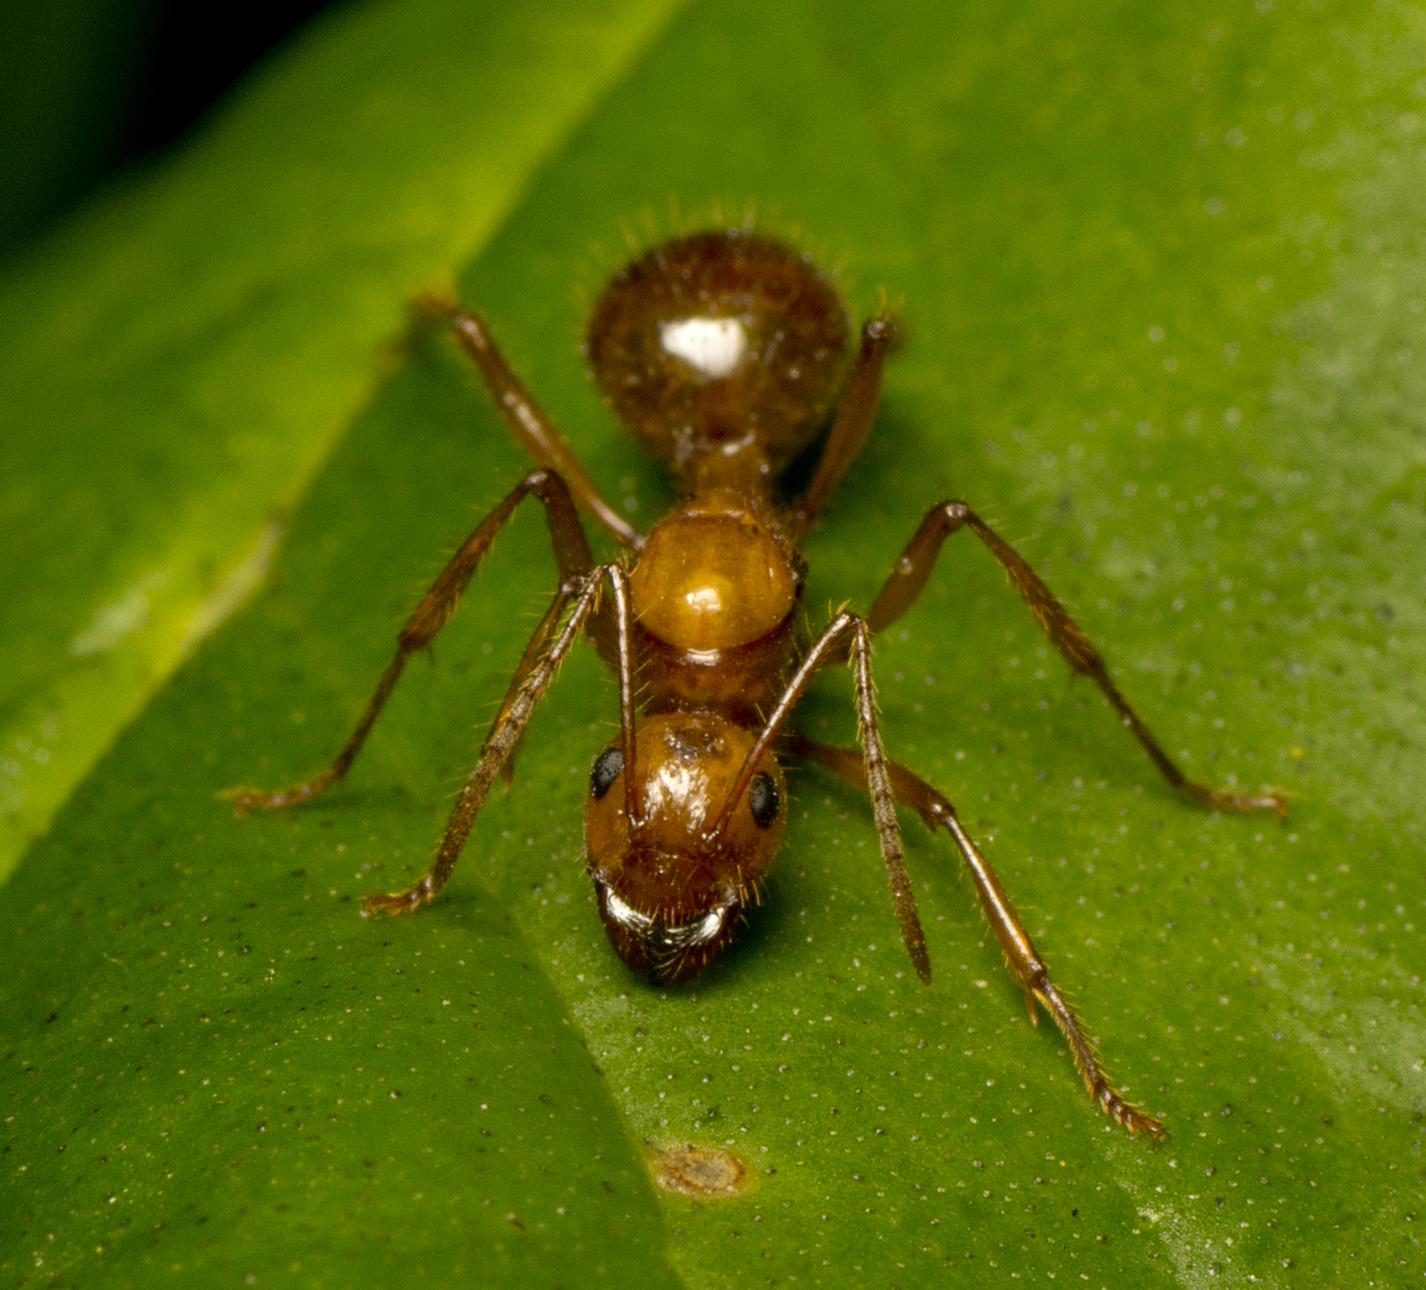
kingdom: Animalia
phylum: Arthropoda
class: Insecta
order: Hymenoptera
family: Formicidae
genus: Notoncus
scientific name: Notoncus spinisquamis
